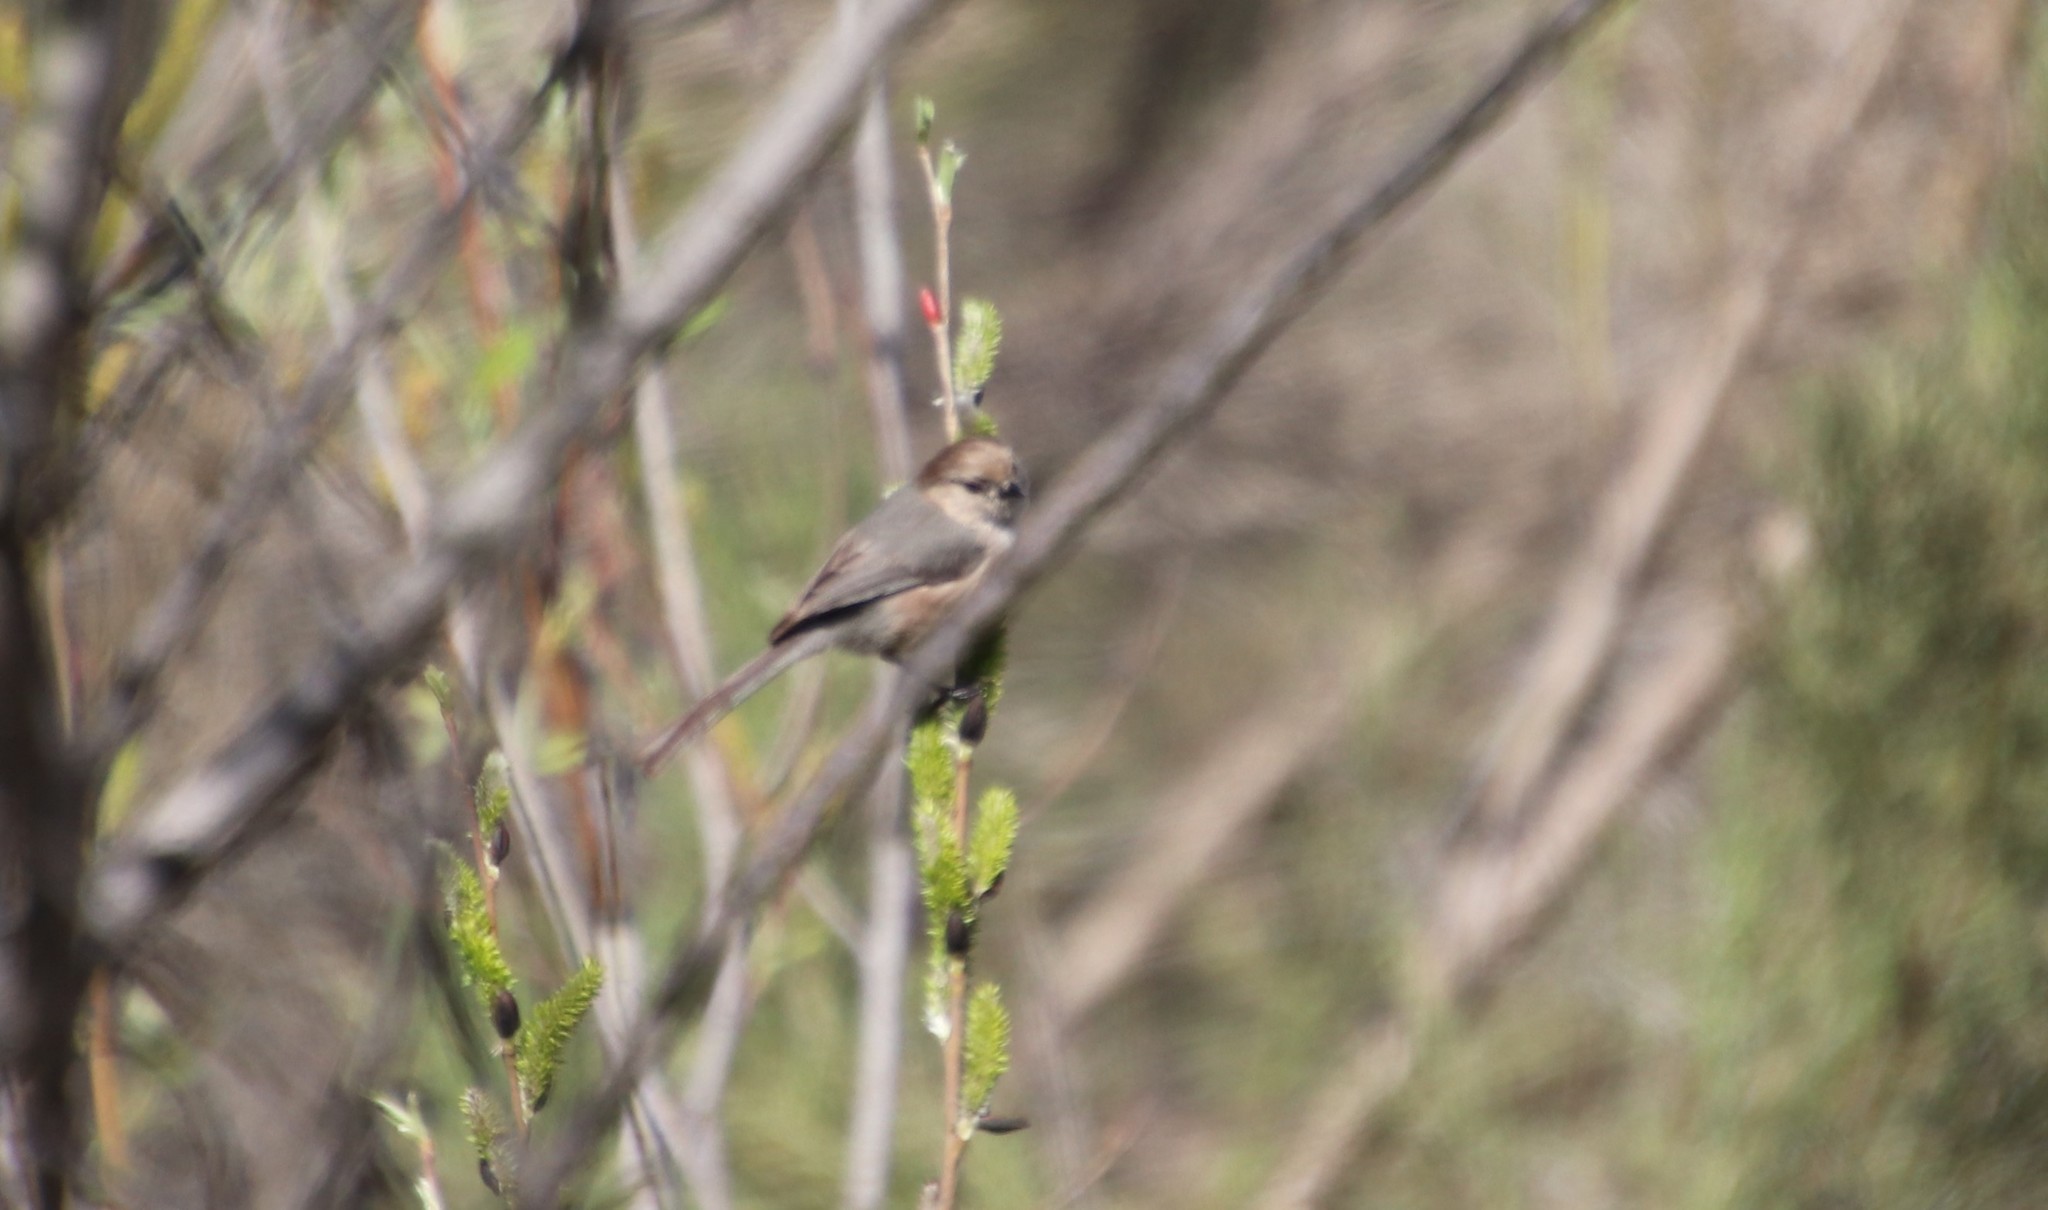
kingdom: Animalia
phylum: Chordata
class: Aves
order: Passeriformes
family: Aegithalidae
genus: Psaltriparus
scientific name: Psaltriparus minimus
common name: American bushtit
